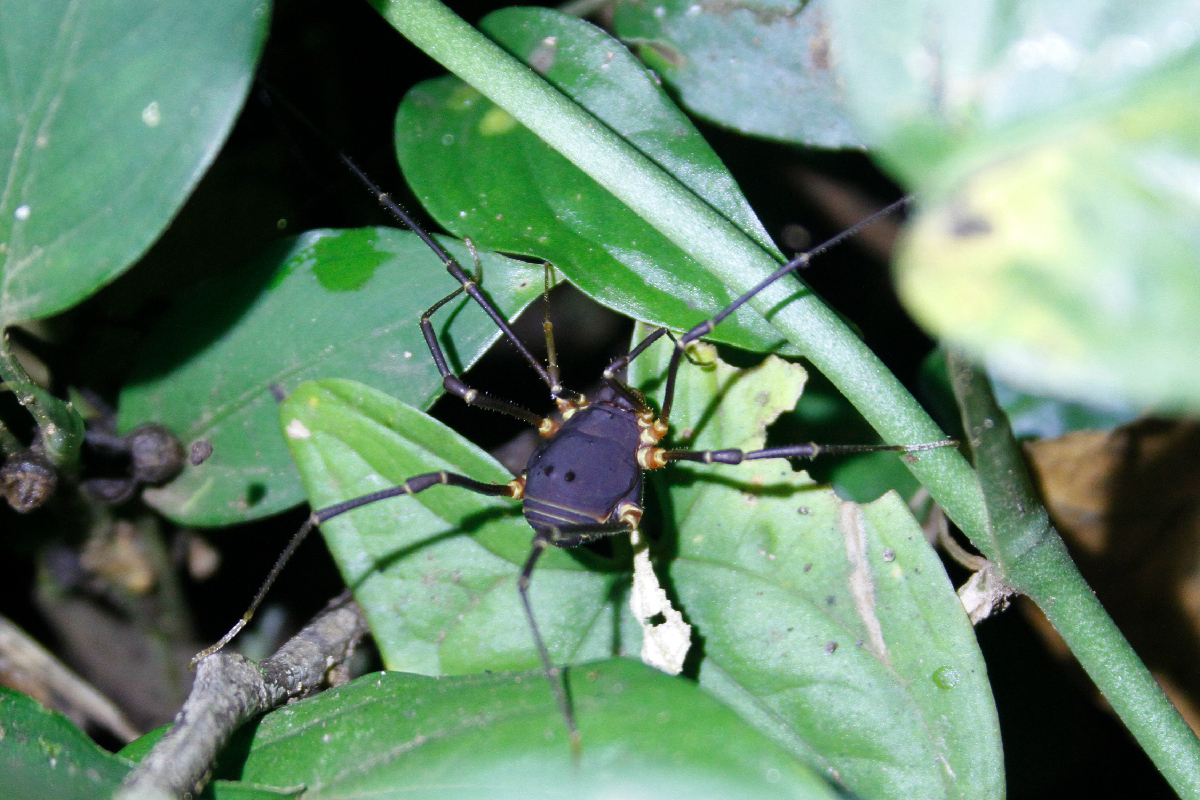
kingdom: Animalia
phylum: Arthropoda
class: Arachnida
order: Opiliones
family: Cosmetidae
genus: Meterginus
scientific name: Meterginus inermipes
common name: Harvestmen
